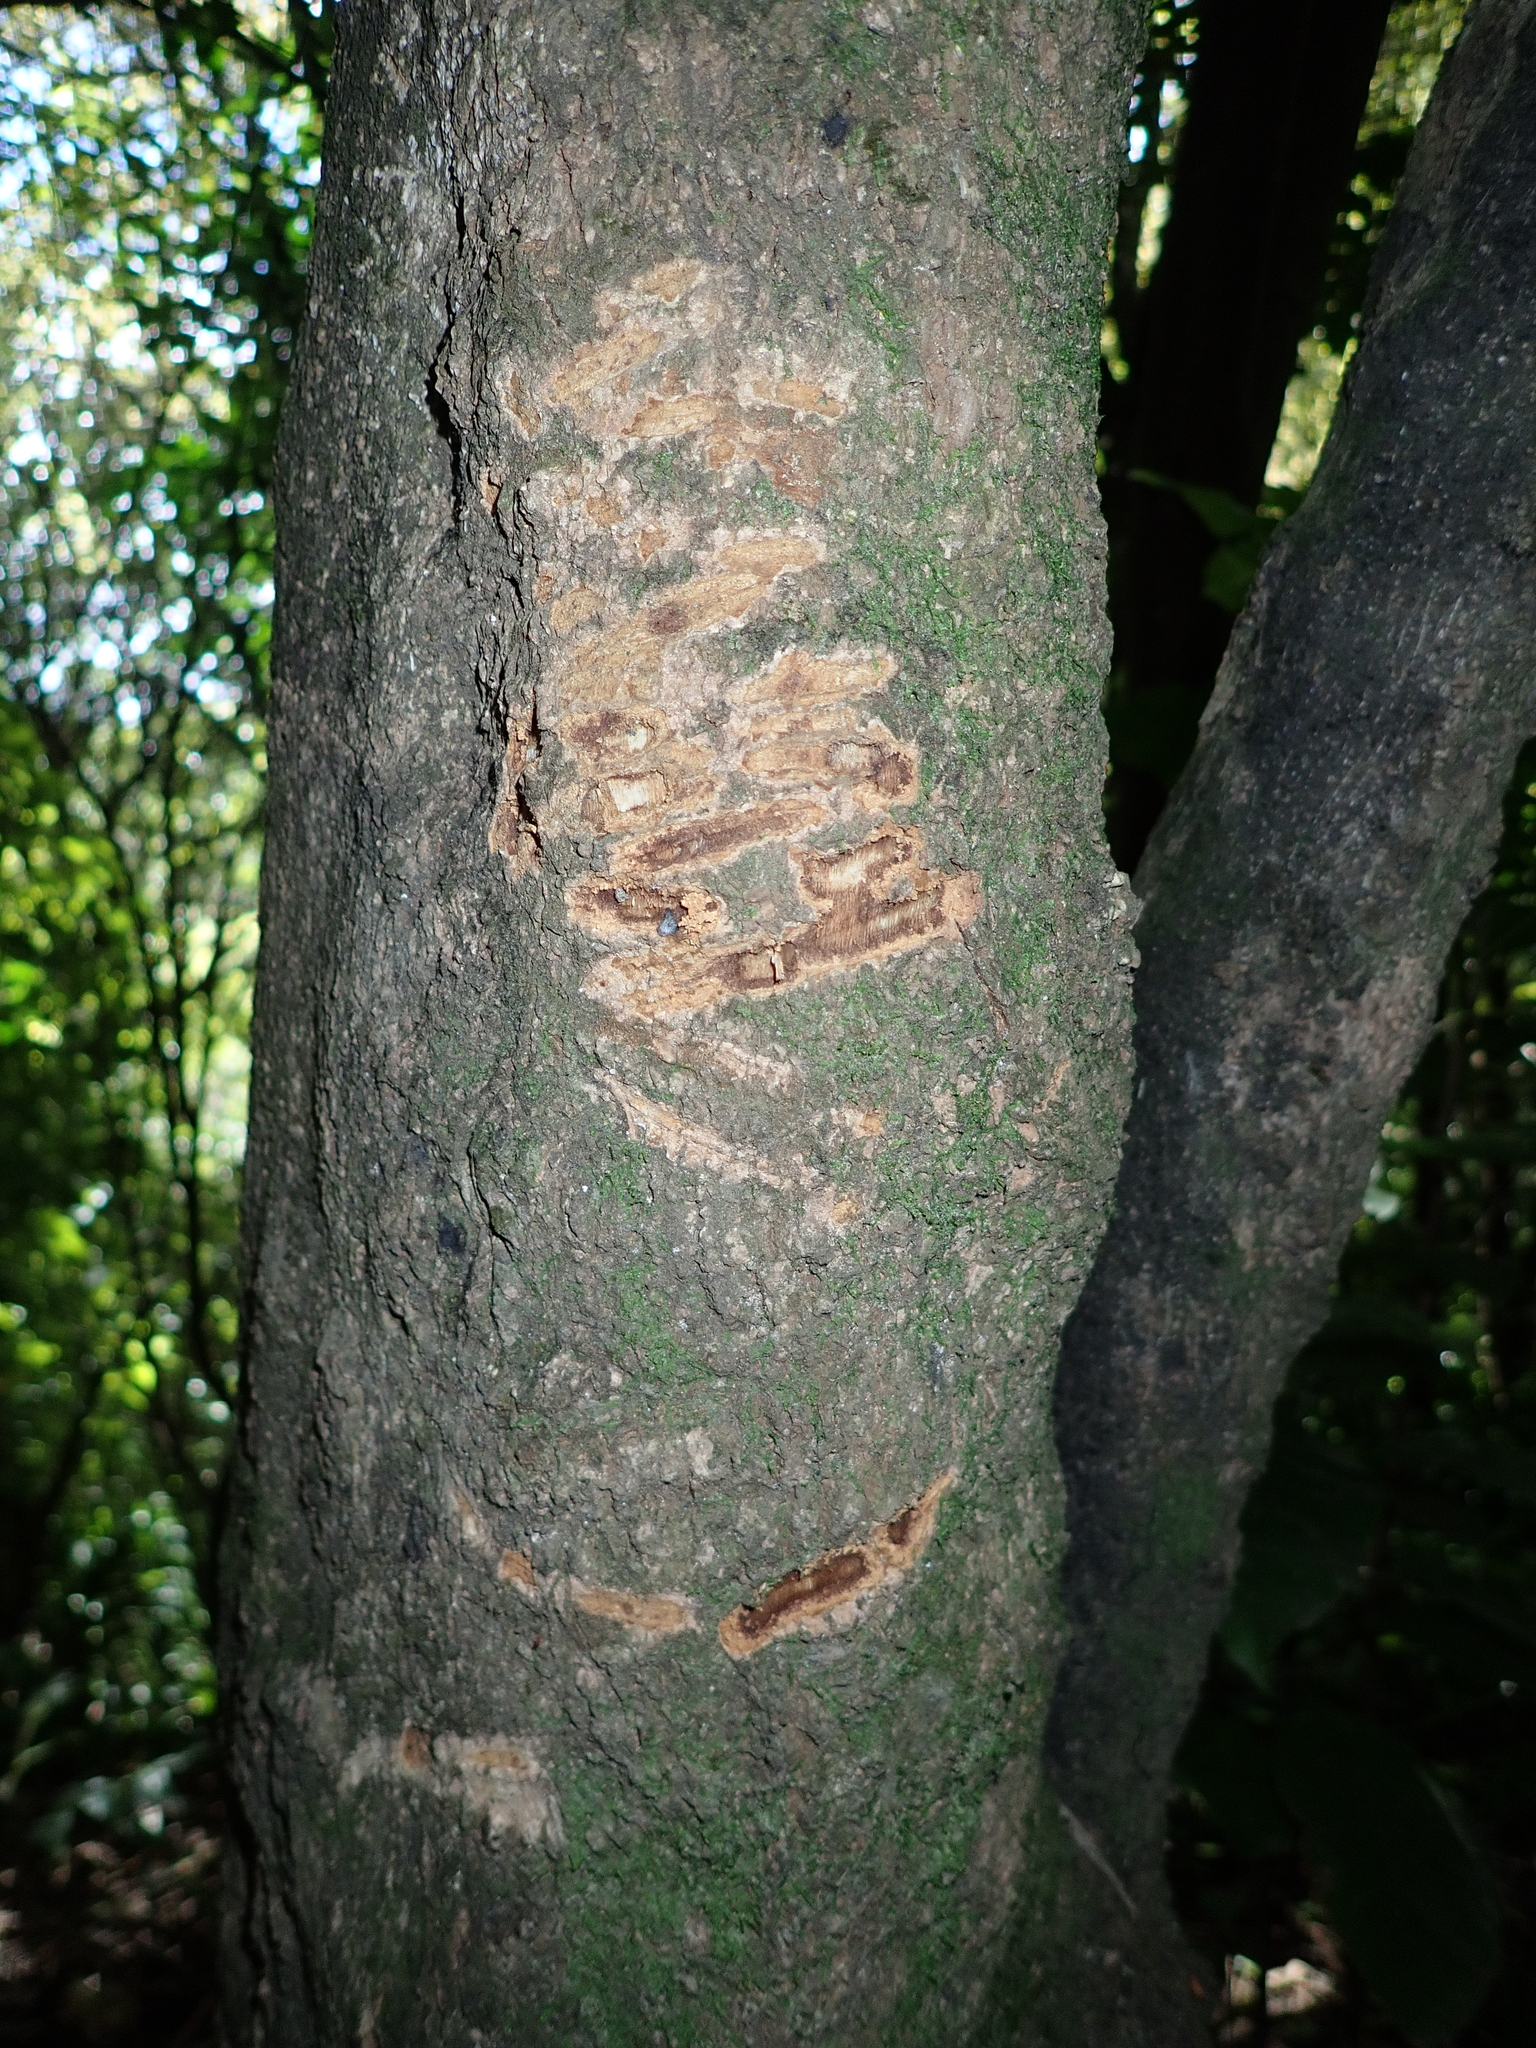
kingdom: Animalia
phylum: Chordata
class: Mammalia
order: Diprotodontia
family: Phalangeridae
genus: Trichosurus
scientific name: Trichosurus vulpecula
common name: Common brushtail
